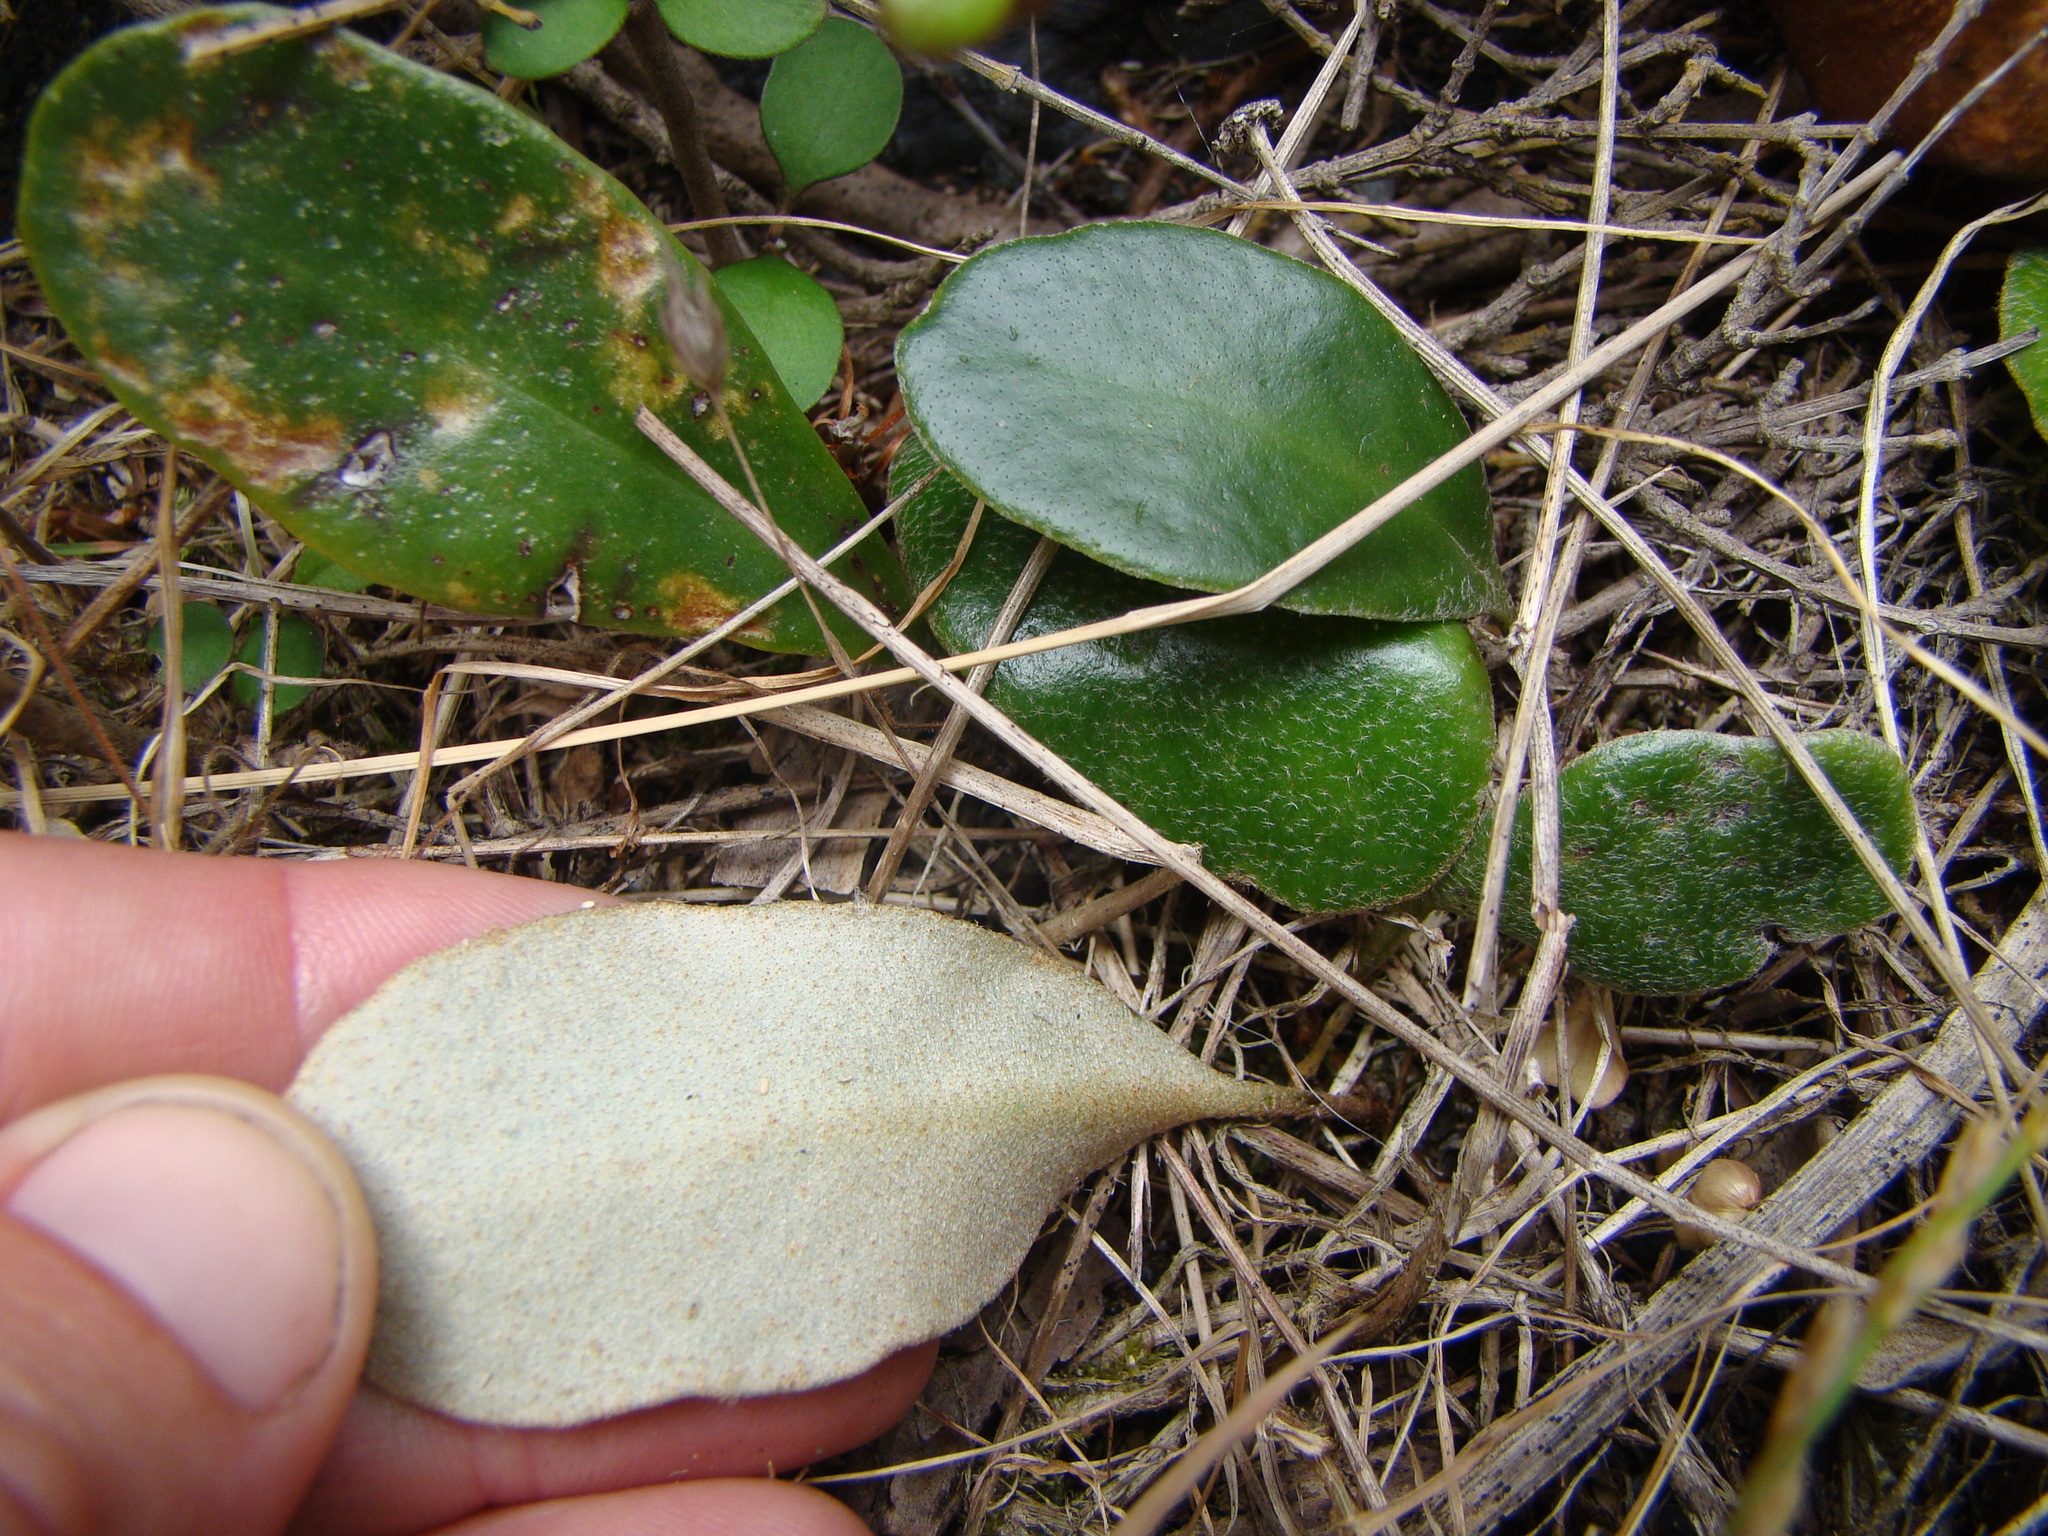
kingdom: Plantae
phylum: Tracheophyta
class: Polypodiopsida
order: Polypodiales
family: Polypodiaceae
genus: Pyrrosia
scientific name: Pyrrosia eleagnifolia
